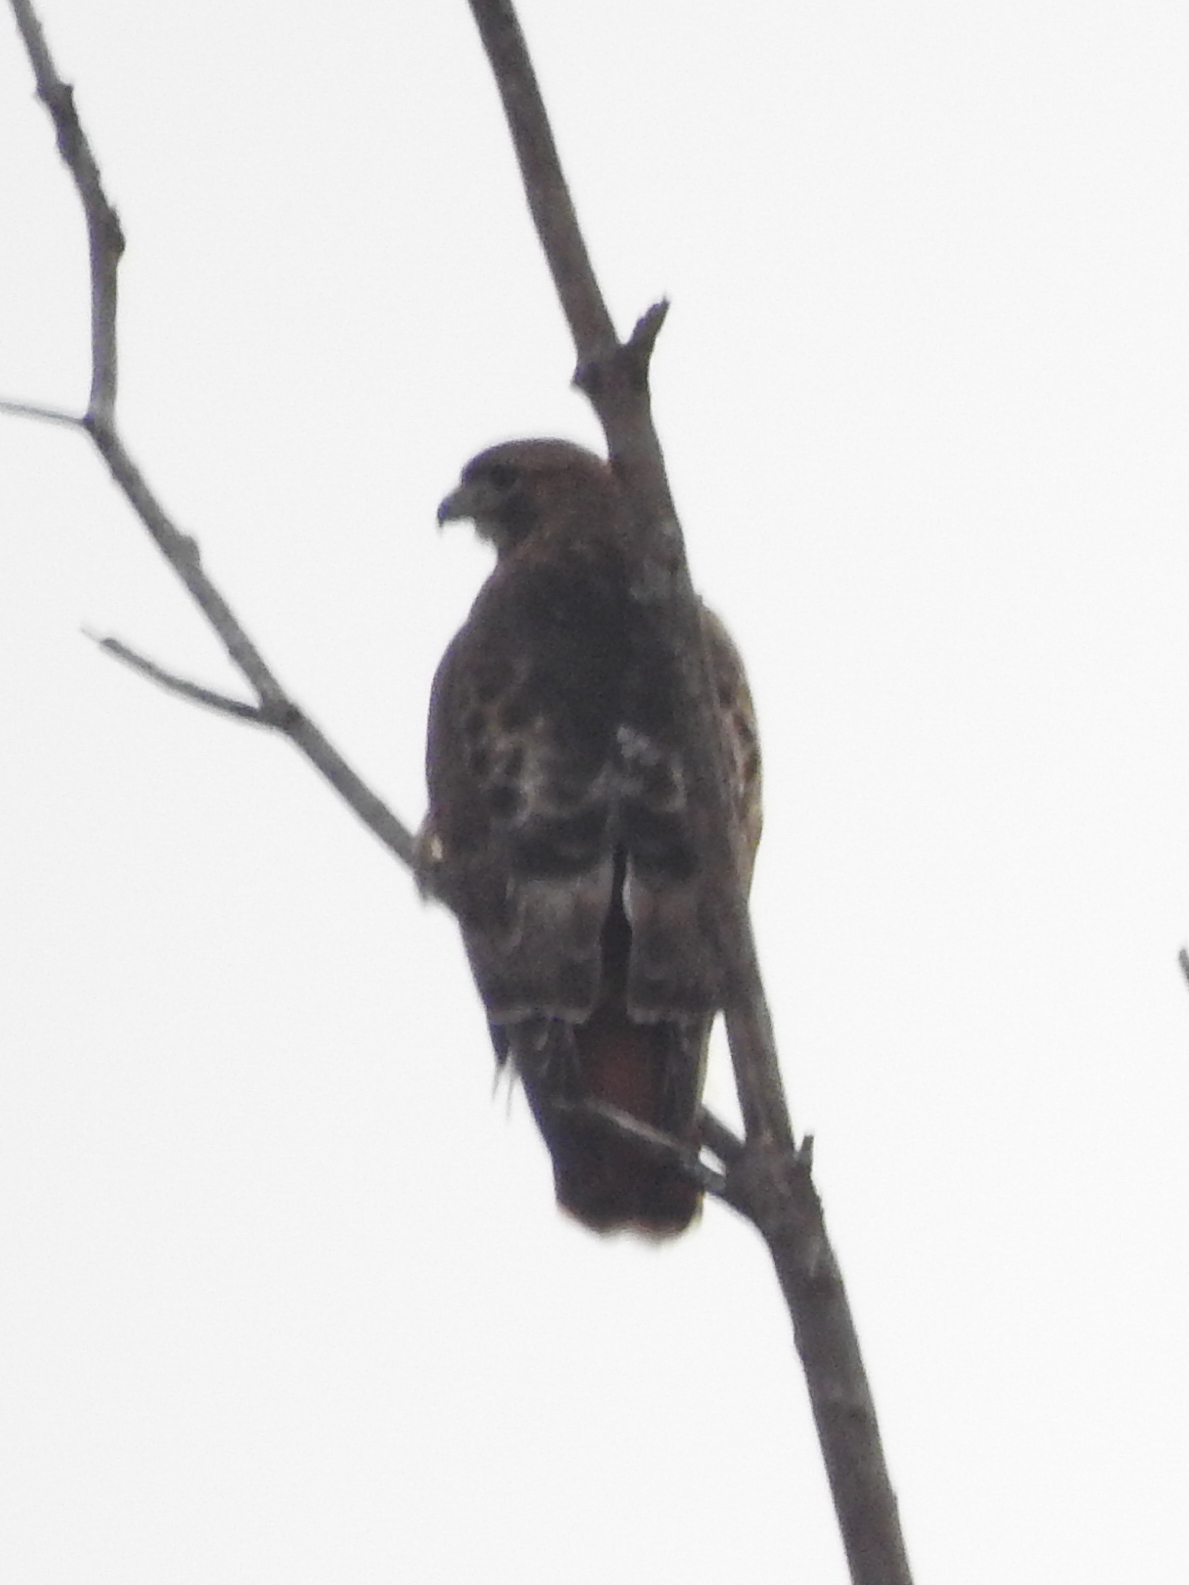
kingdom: Animalia
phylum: Chordata
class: Aves
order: Accipitriformes
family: Accipitridae
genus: Buteo
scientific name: Buteo jamaicensis
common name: Red-tailed hawk
